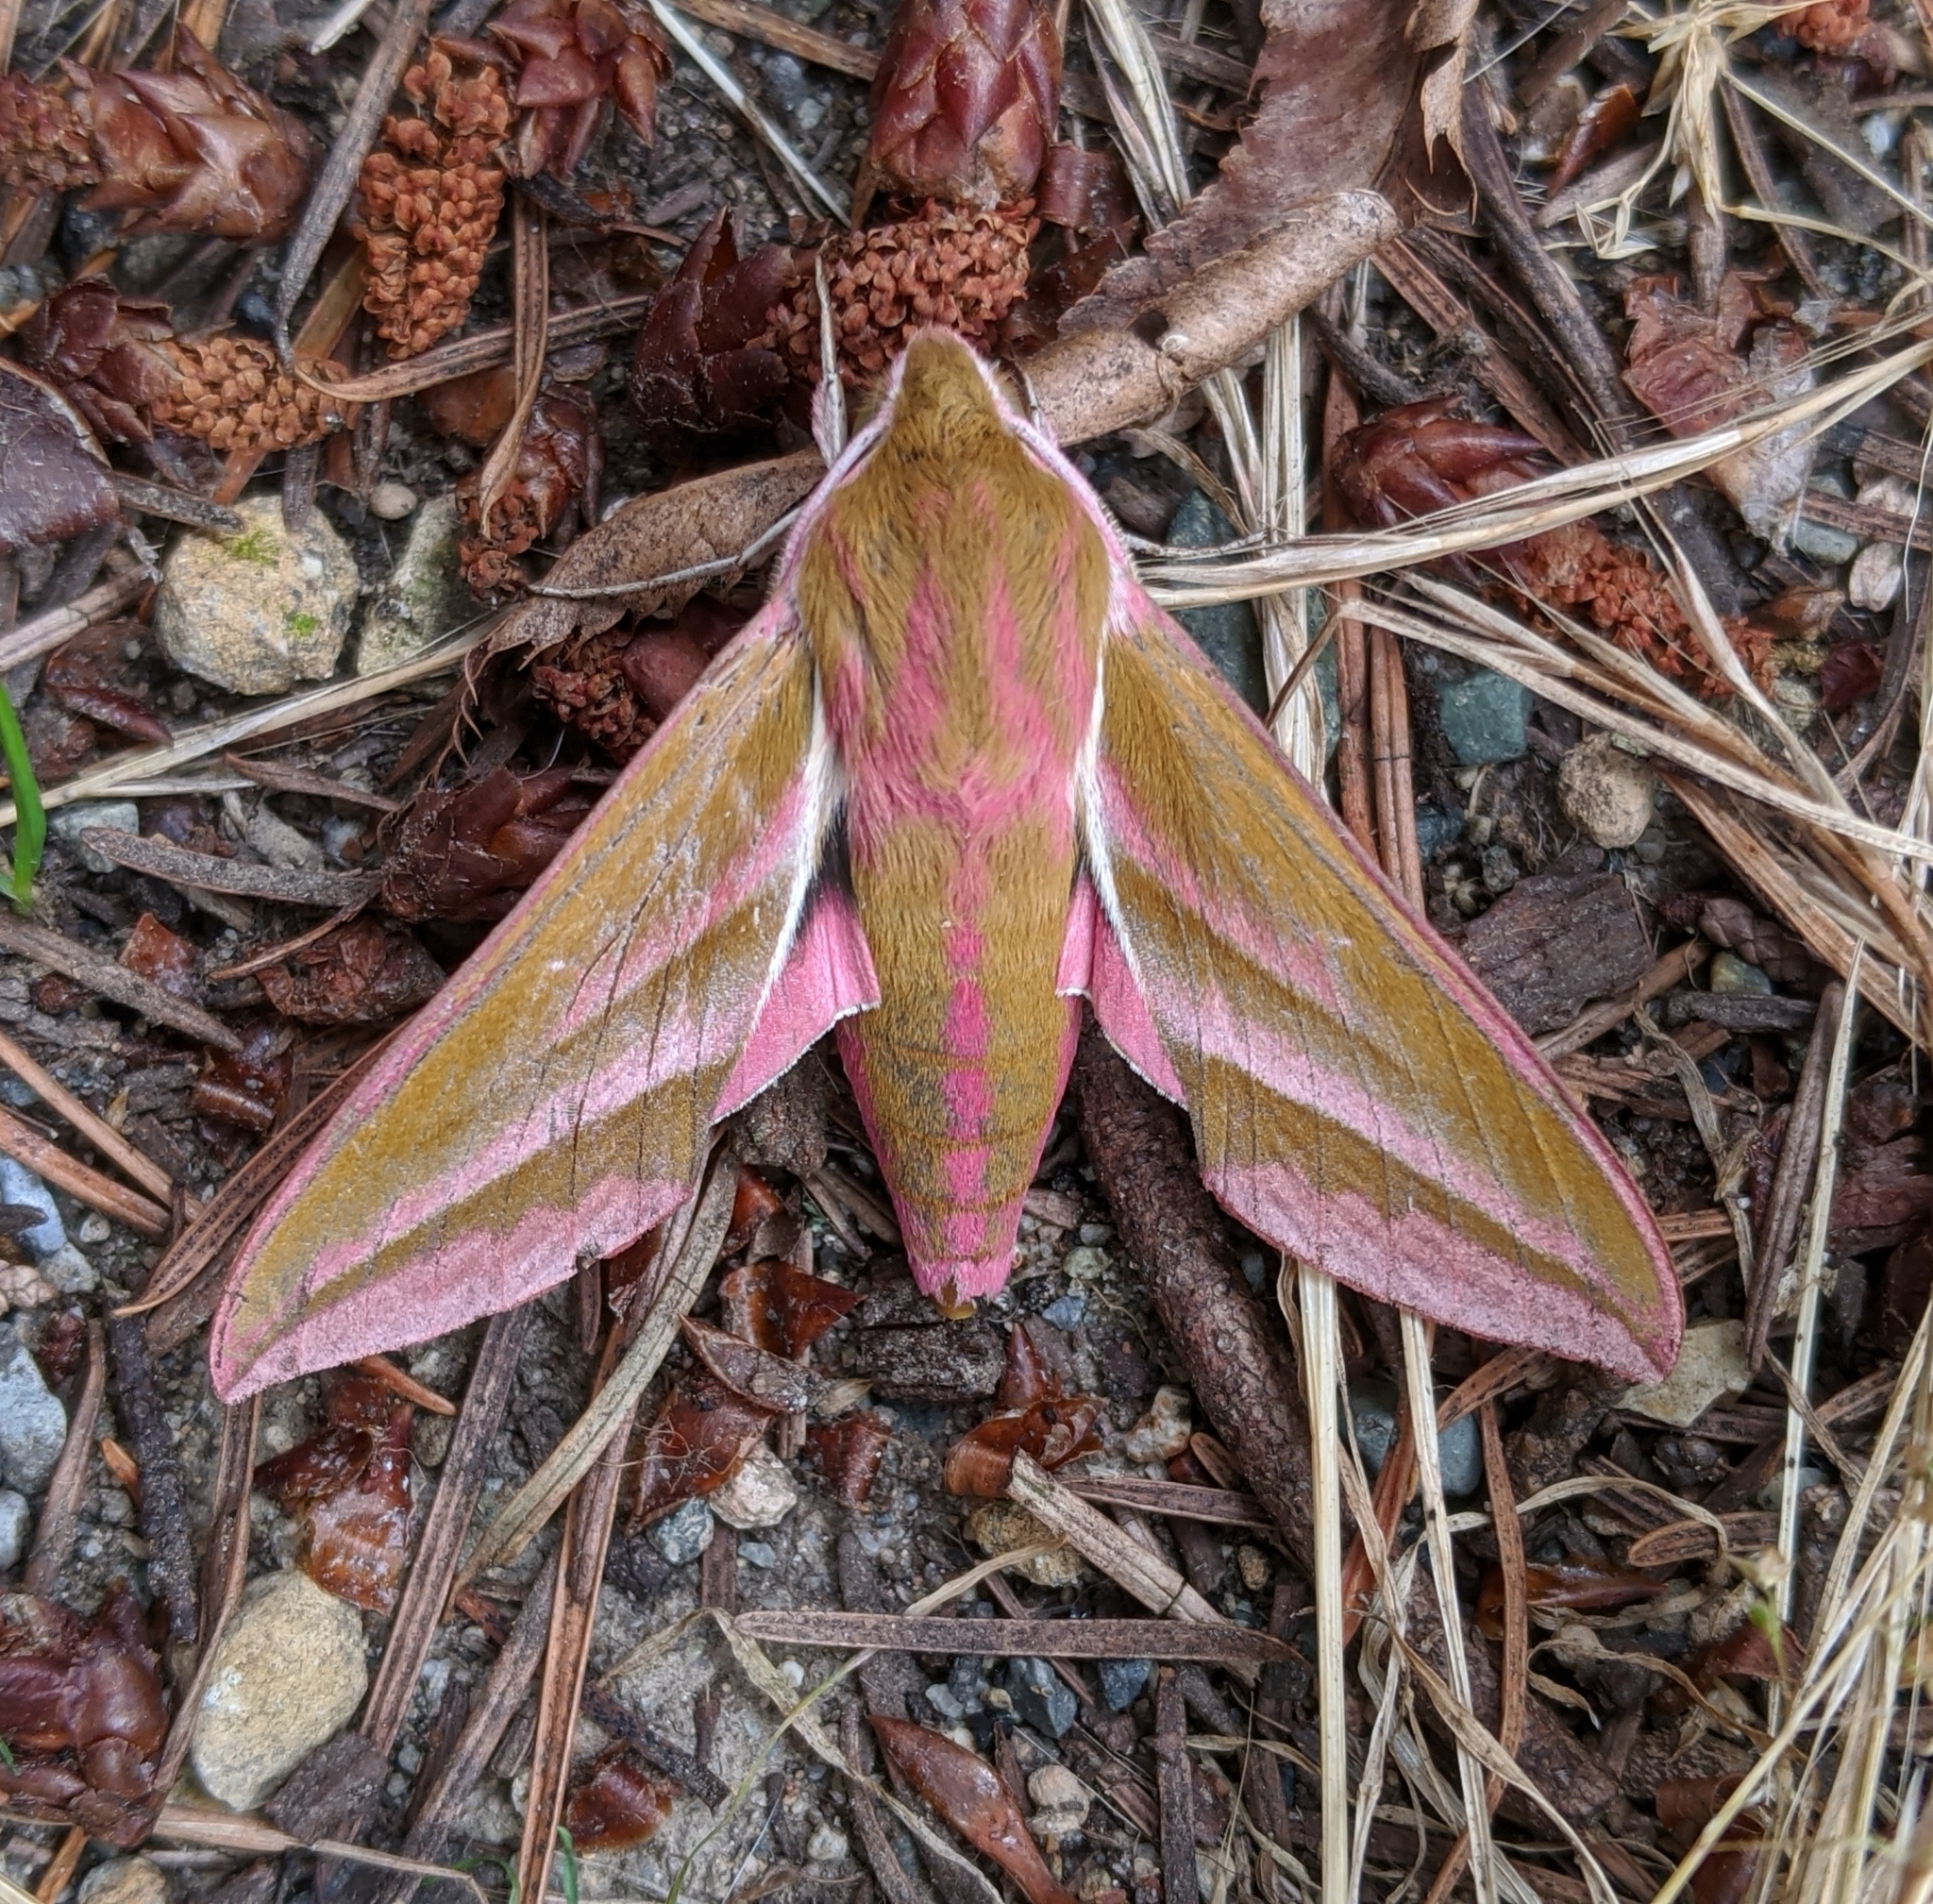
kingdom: Animalia
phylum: Arthropoda
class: Insecta
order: Lepidoptera
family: Sphingidae
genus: Deilephila
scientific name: Deilephila elpenor
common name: Elephant hawk-moth
